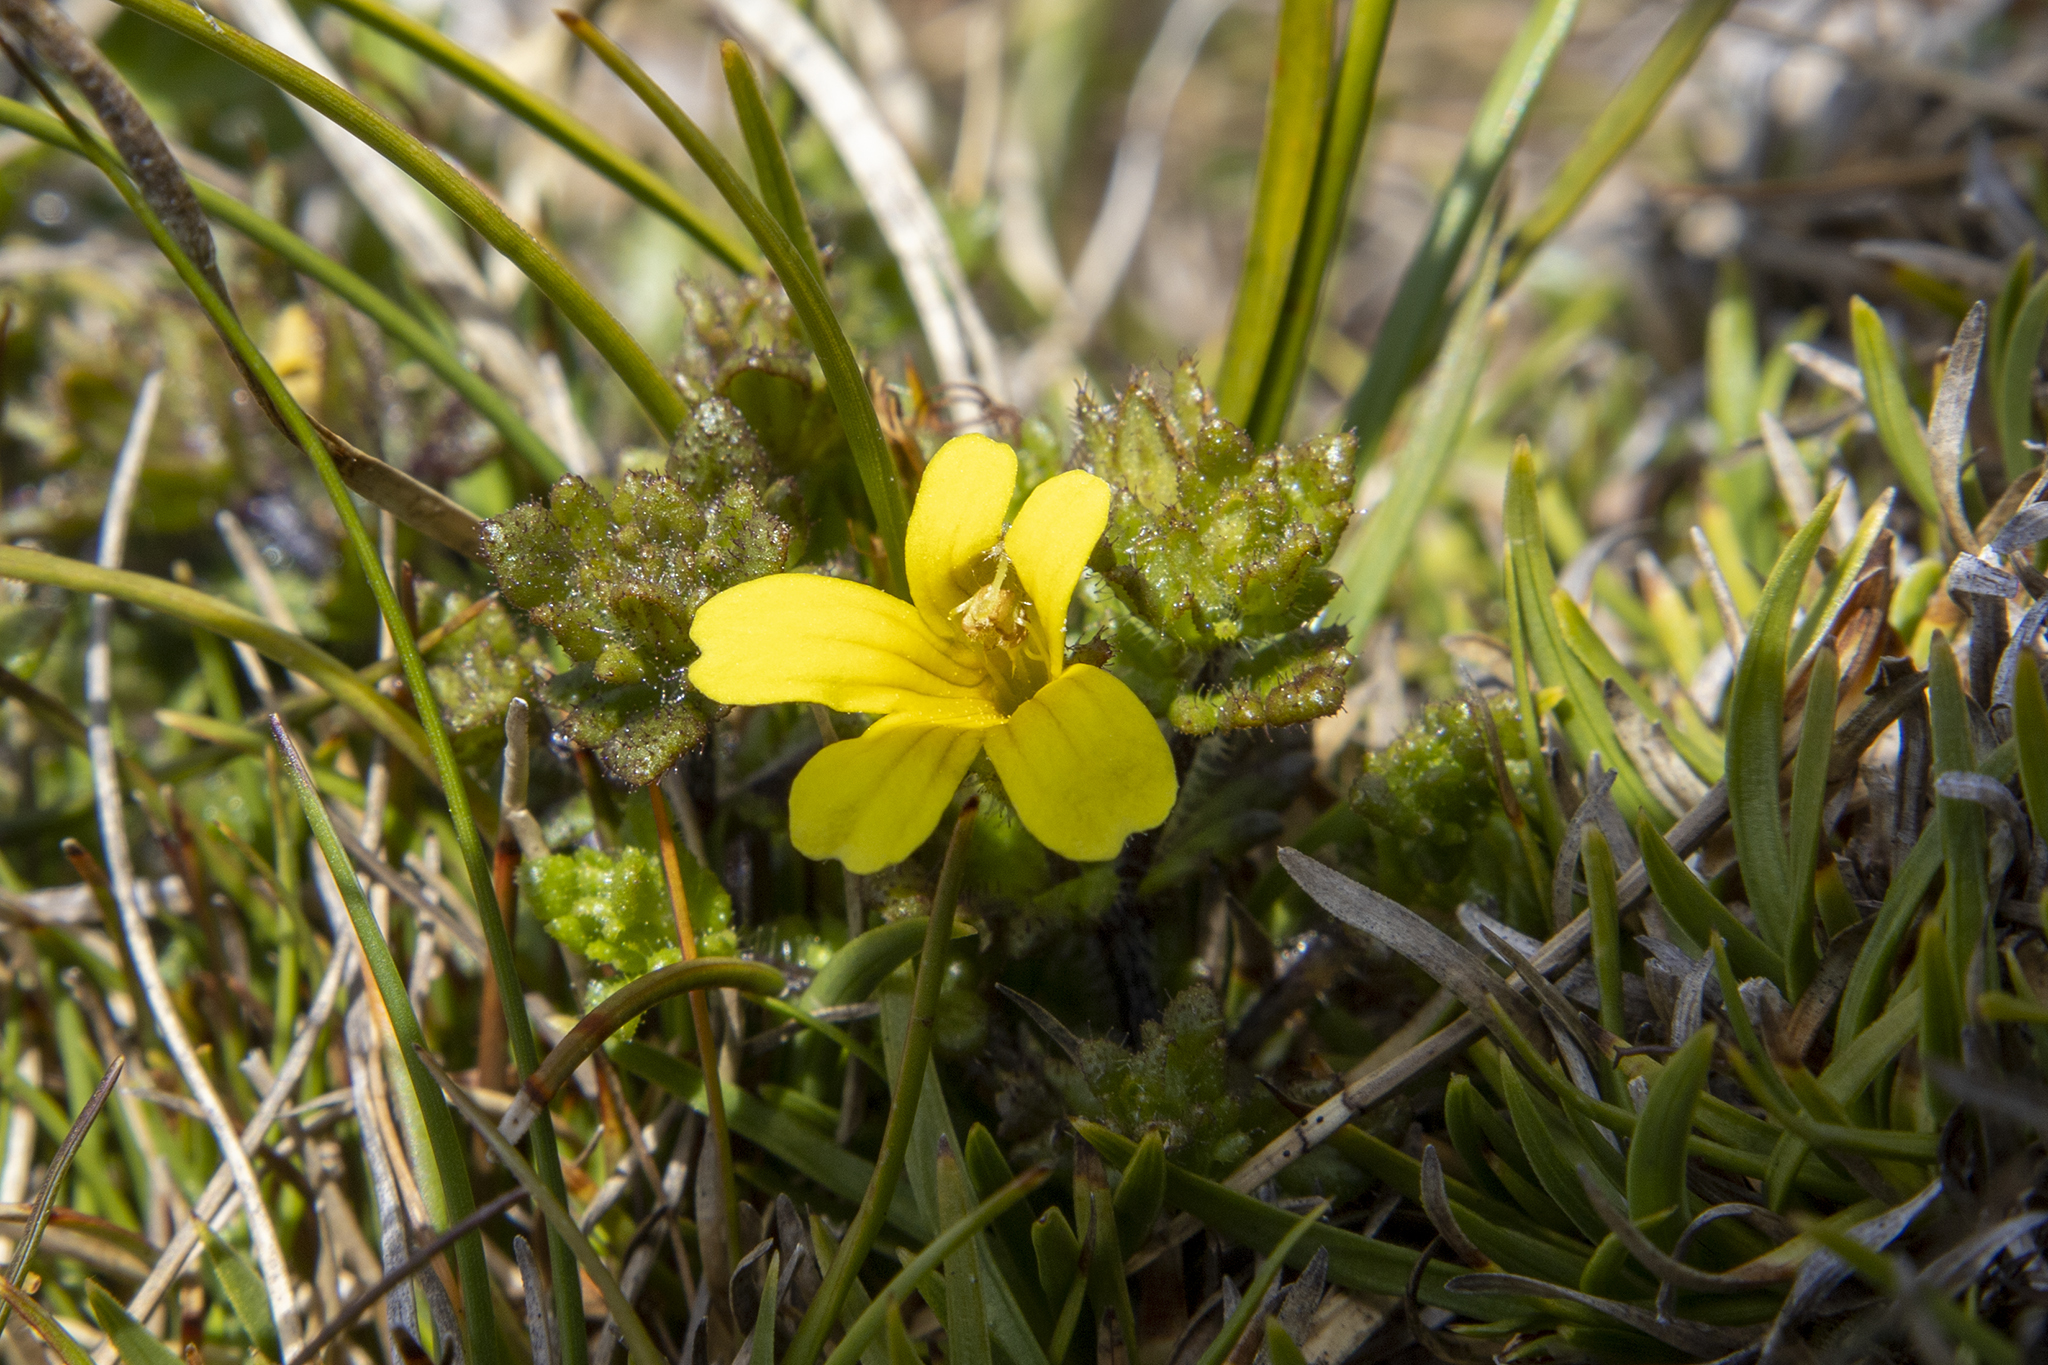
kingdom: Plantae
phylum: Tracheophyta
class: Magnoliopsida
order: Lamiales
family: Orobanchaceae
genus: Euphrasia
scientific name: Euphrasia cockayneana
